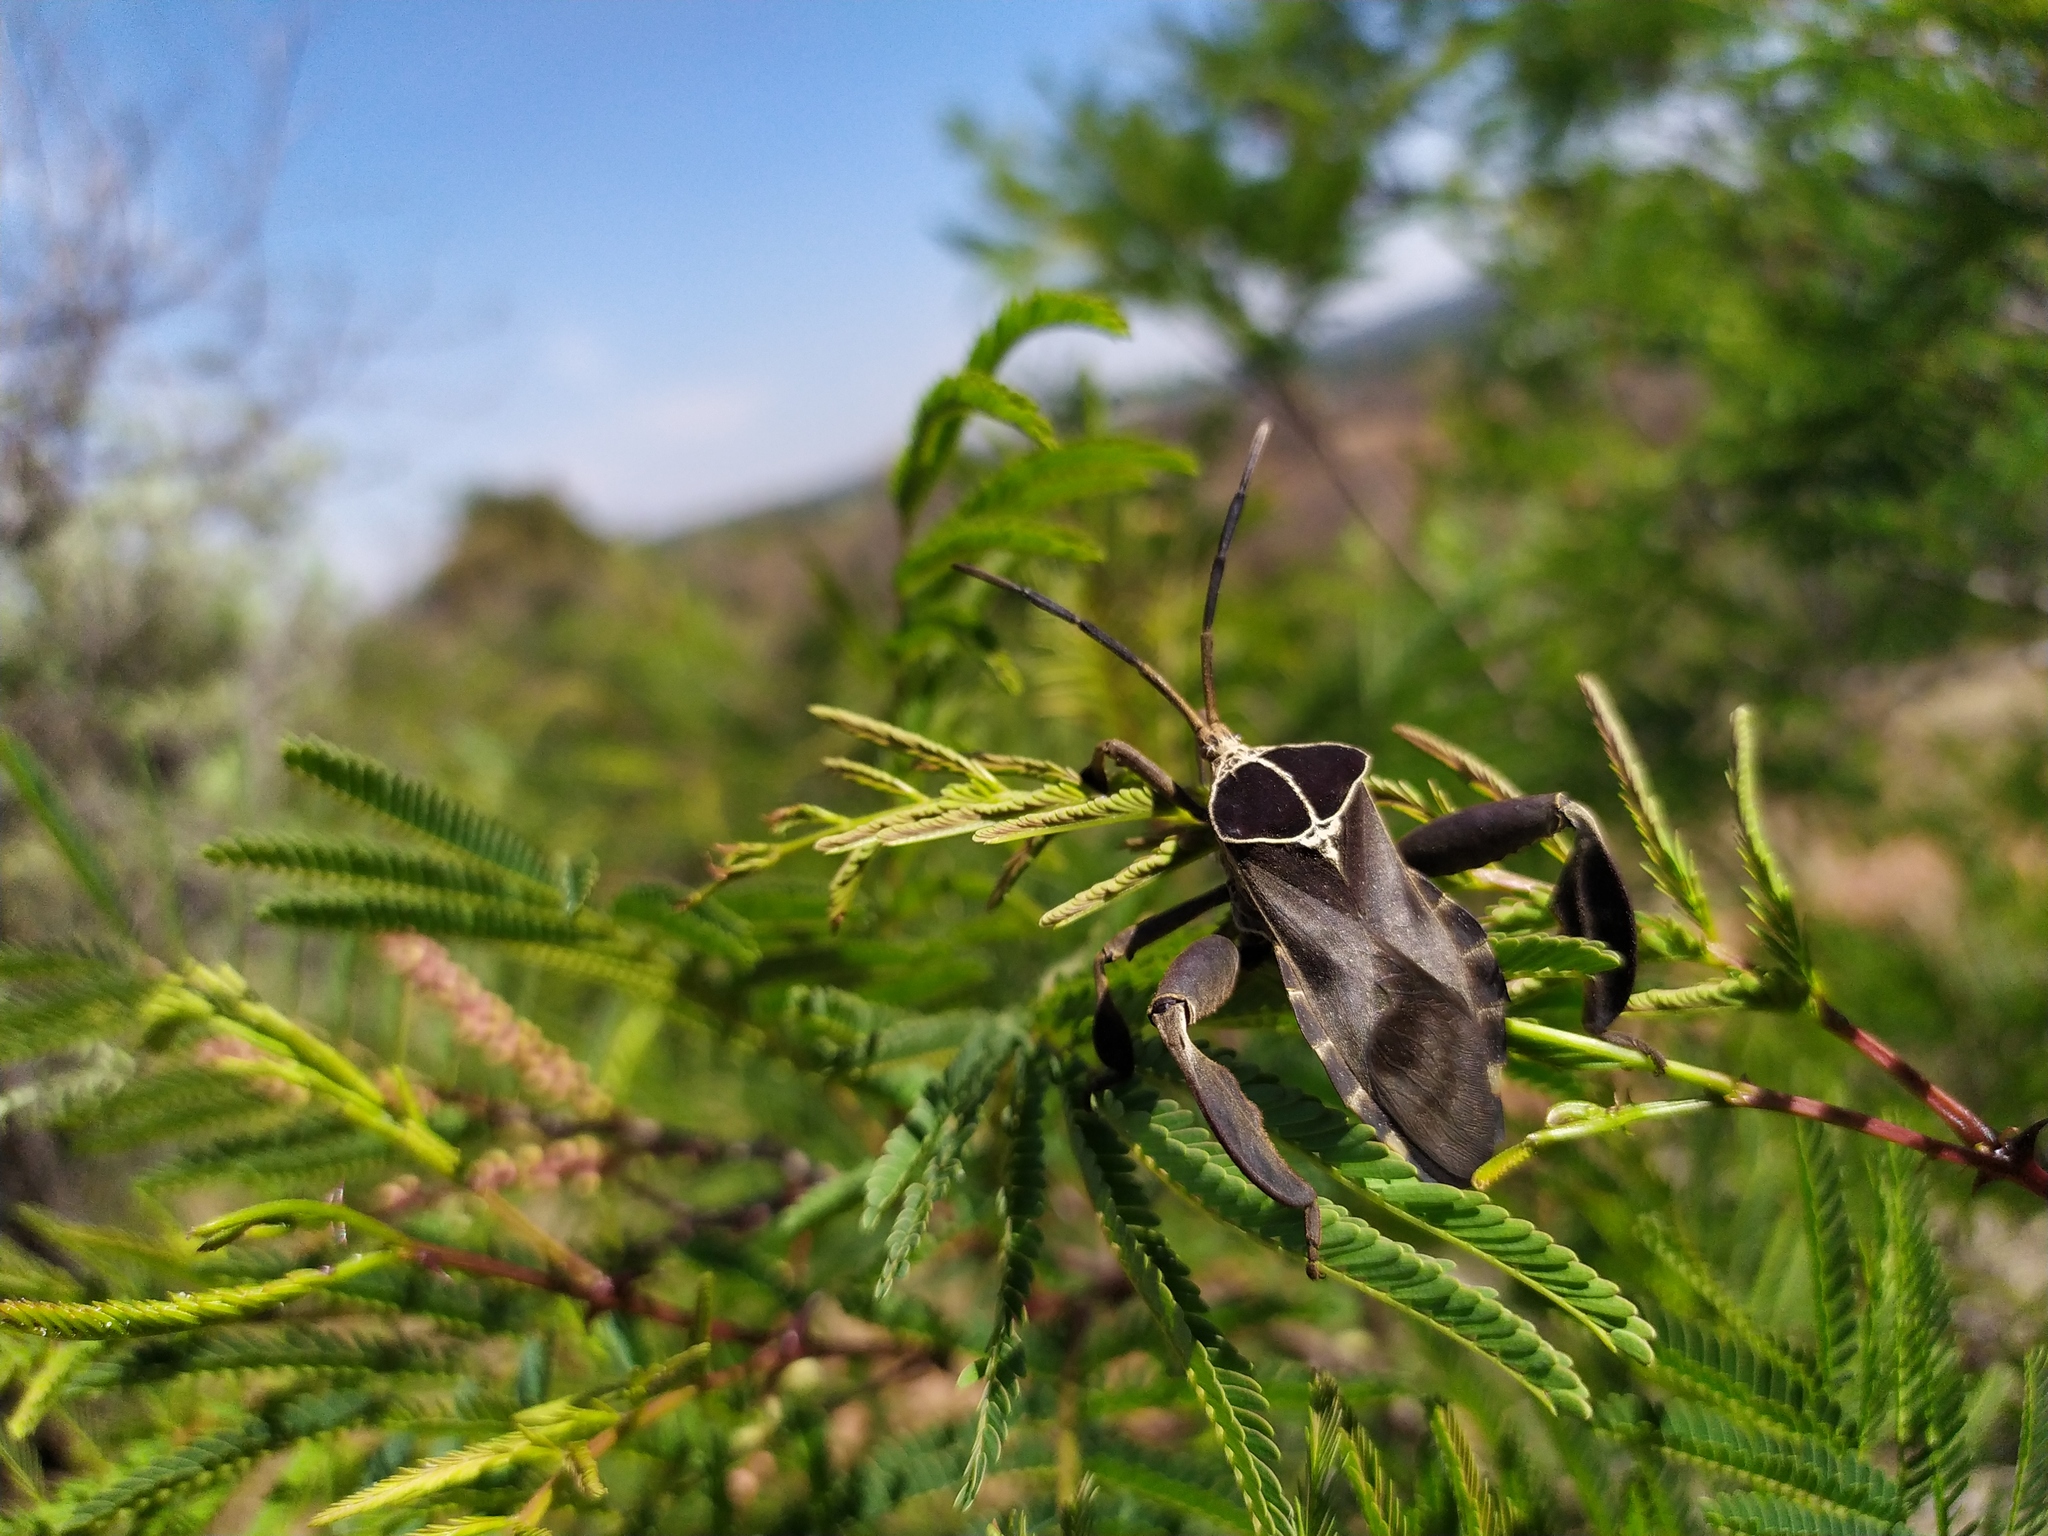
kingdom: Animalia
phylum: Arthropoda
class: Insecta
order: Hemiptera
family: Coreidae
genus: Petascelis
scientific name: Petascelis remipes
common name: Giant twig wilter
